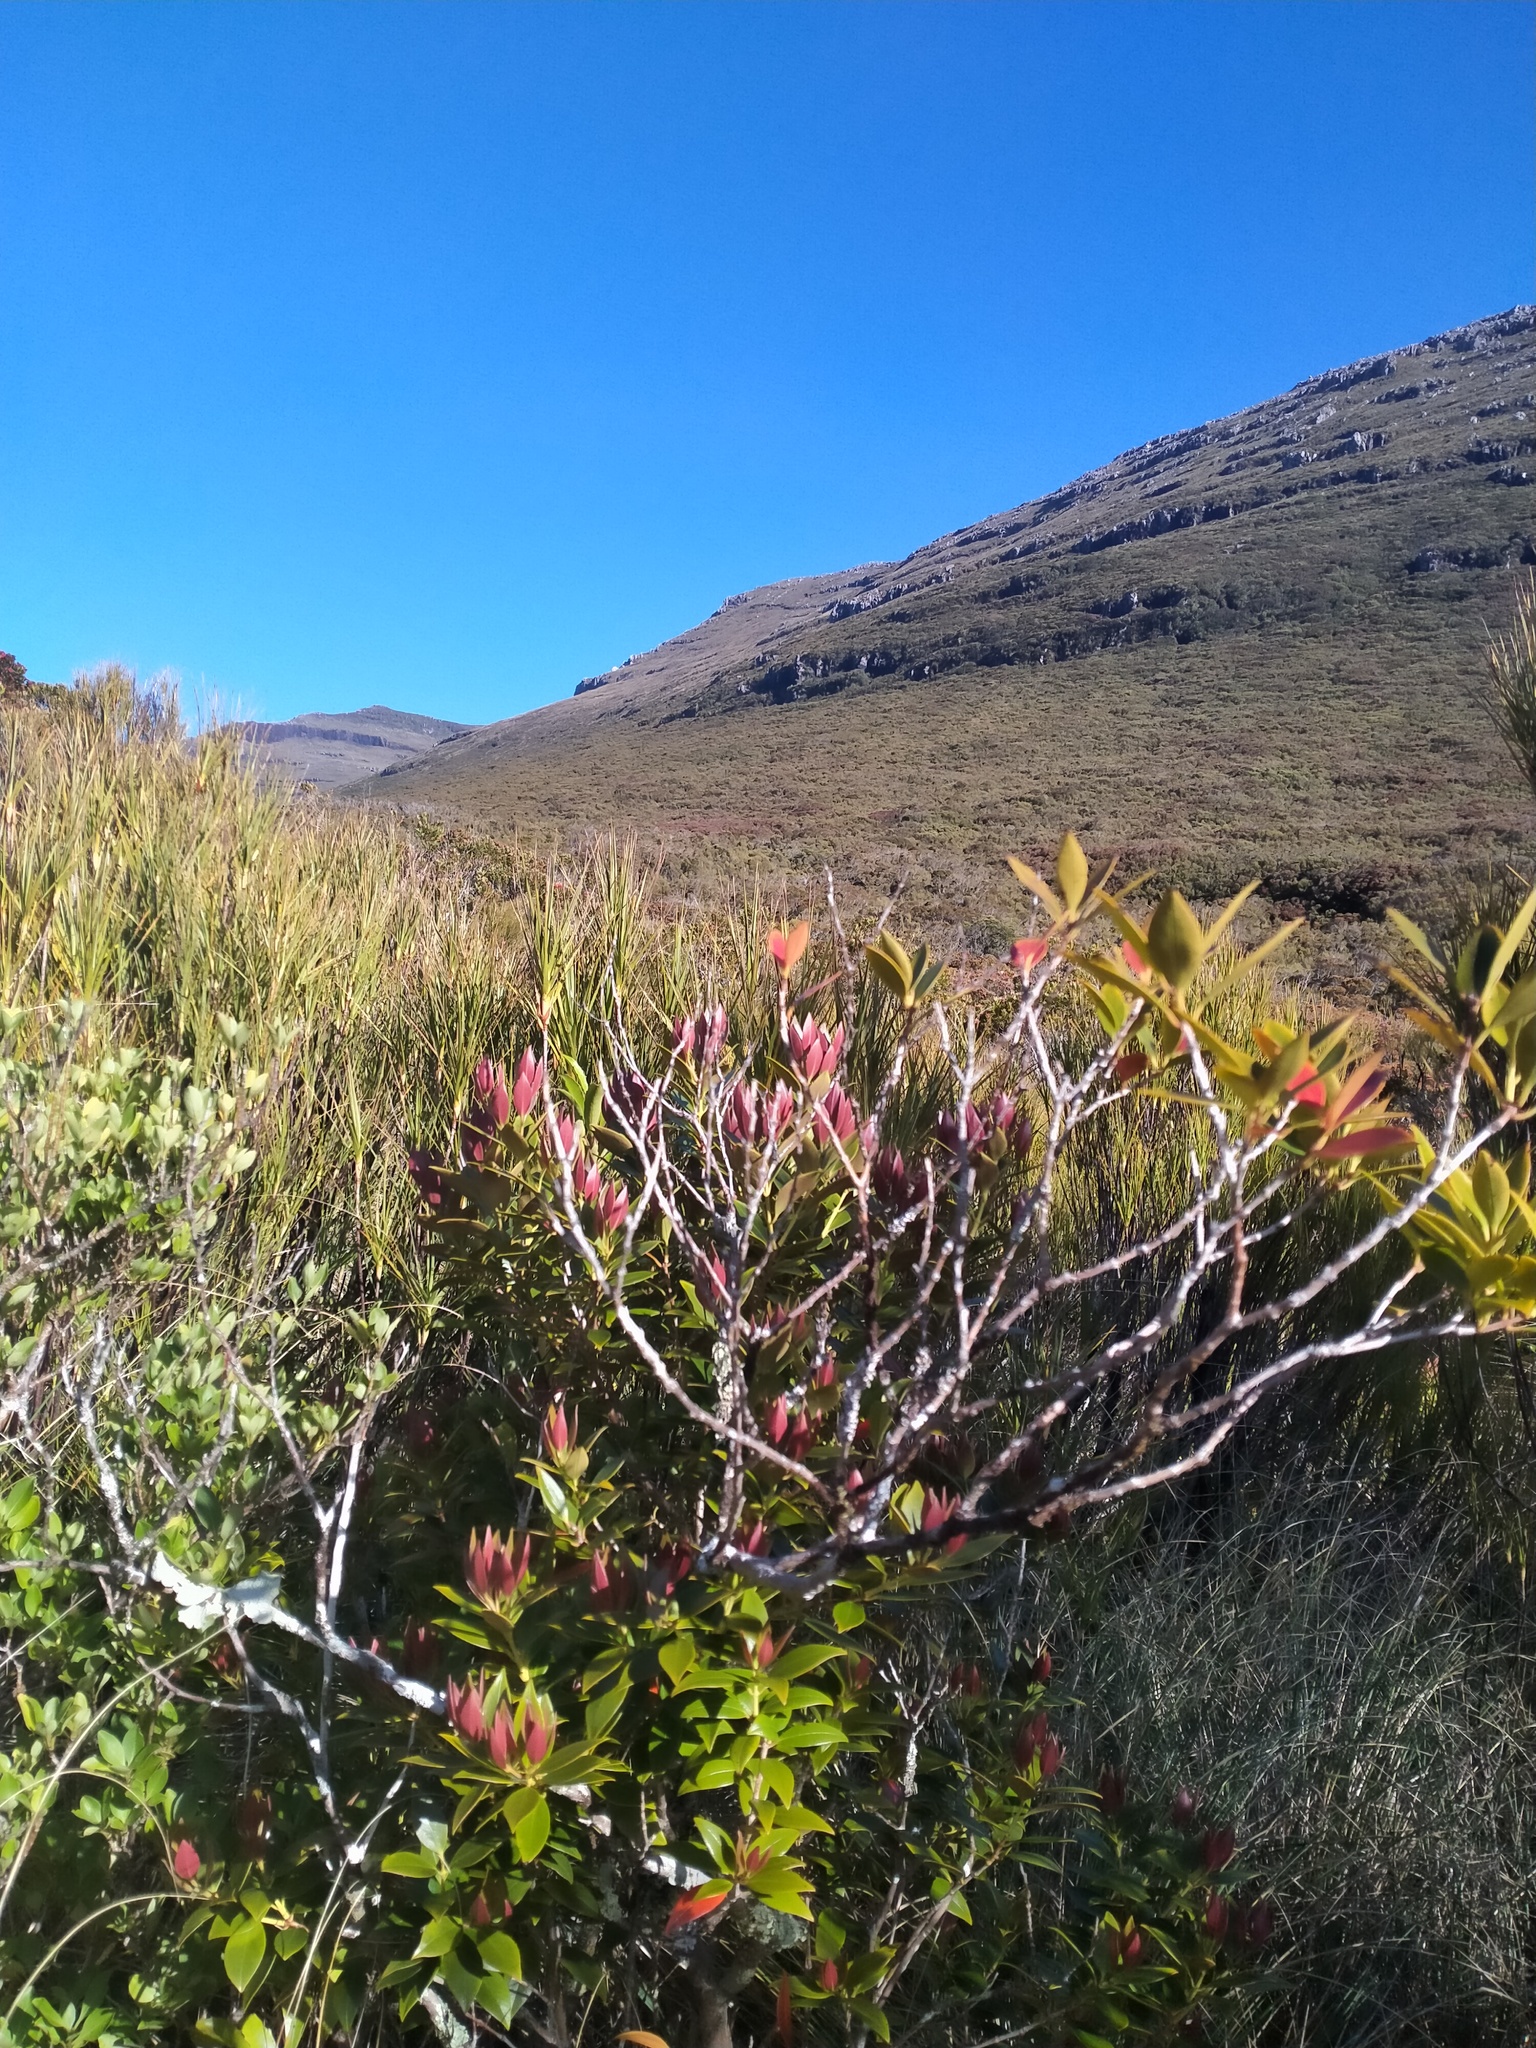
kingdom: Plantae
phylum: Tracheophyta
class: Magnoliopsida
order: Myrtales
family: Myrtaceae
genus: Metrosideros
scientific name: Metrosideros umbellata
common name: Southern rata
